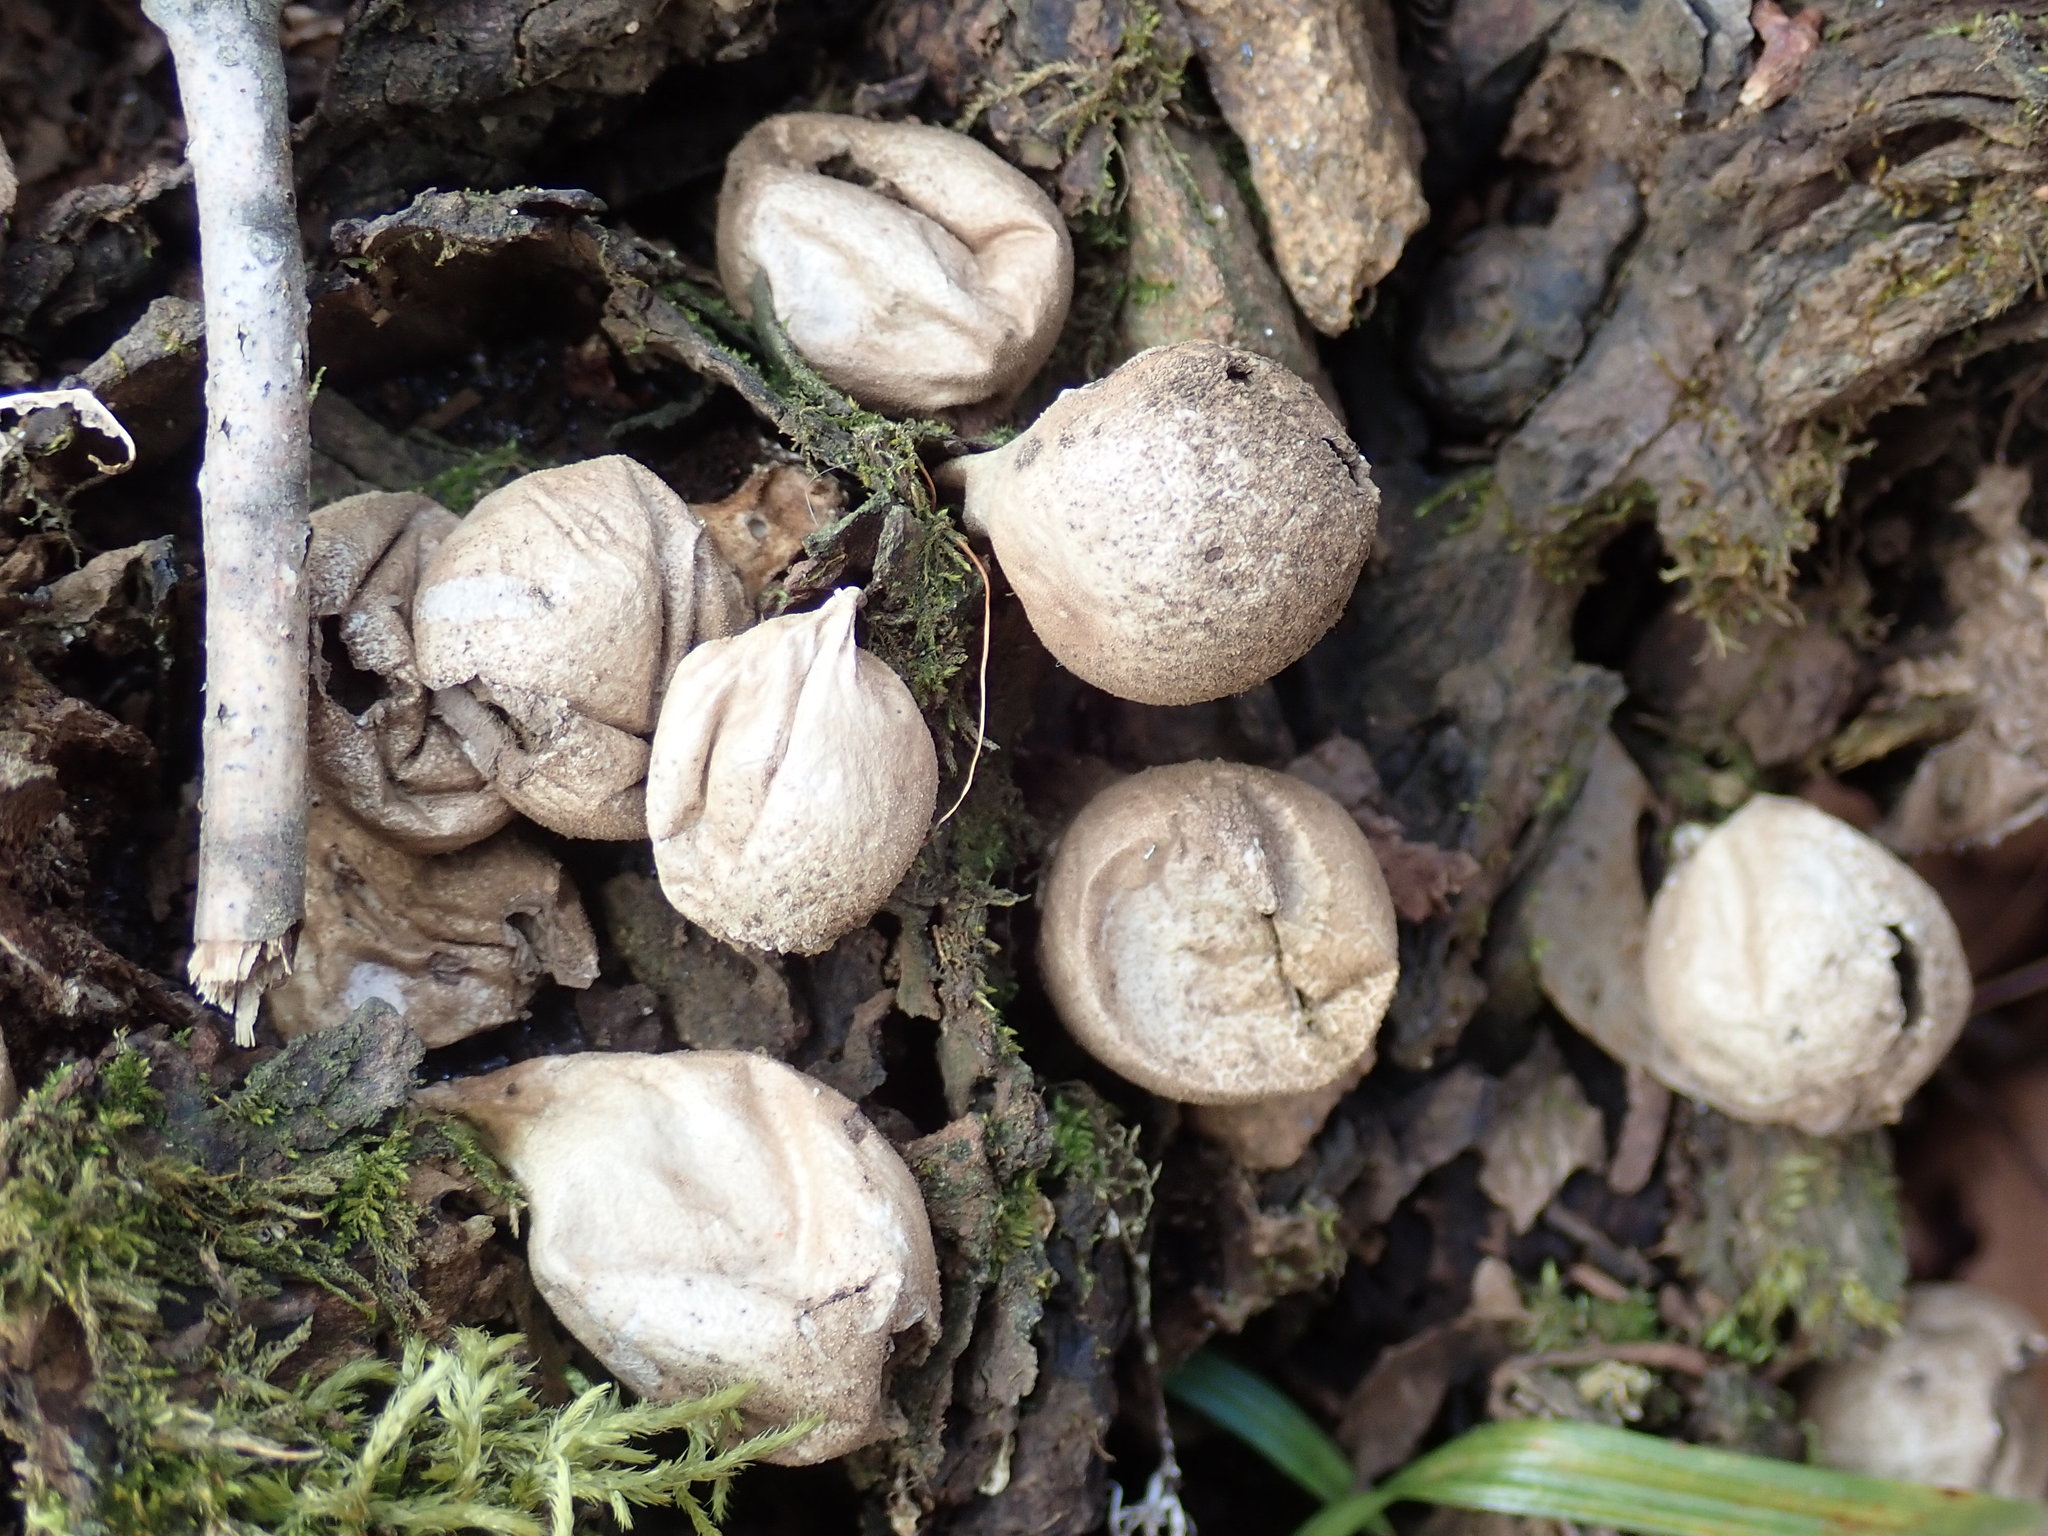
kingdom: Fungi
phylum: Basidiomycota
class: Agaricomycetes
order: Agaricales
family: Lycoperdaceae
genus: Apioperdon
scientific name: Apioperdon pyriforme
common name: Pear-shaped puffball
